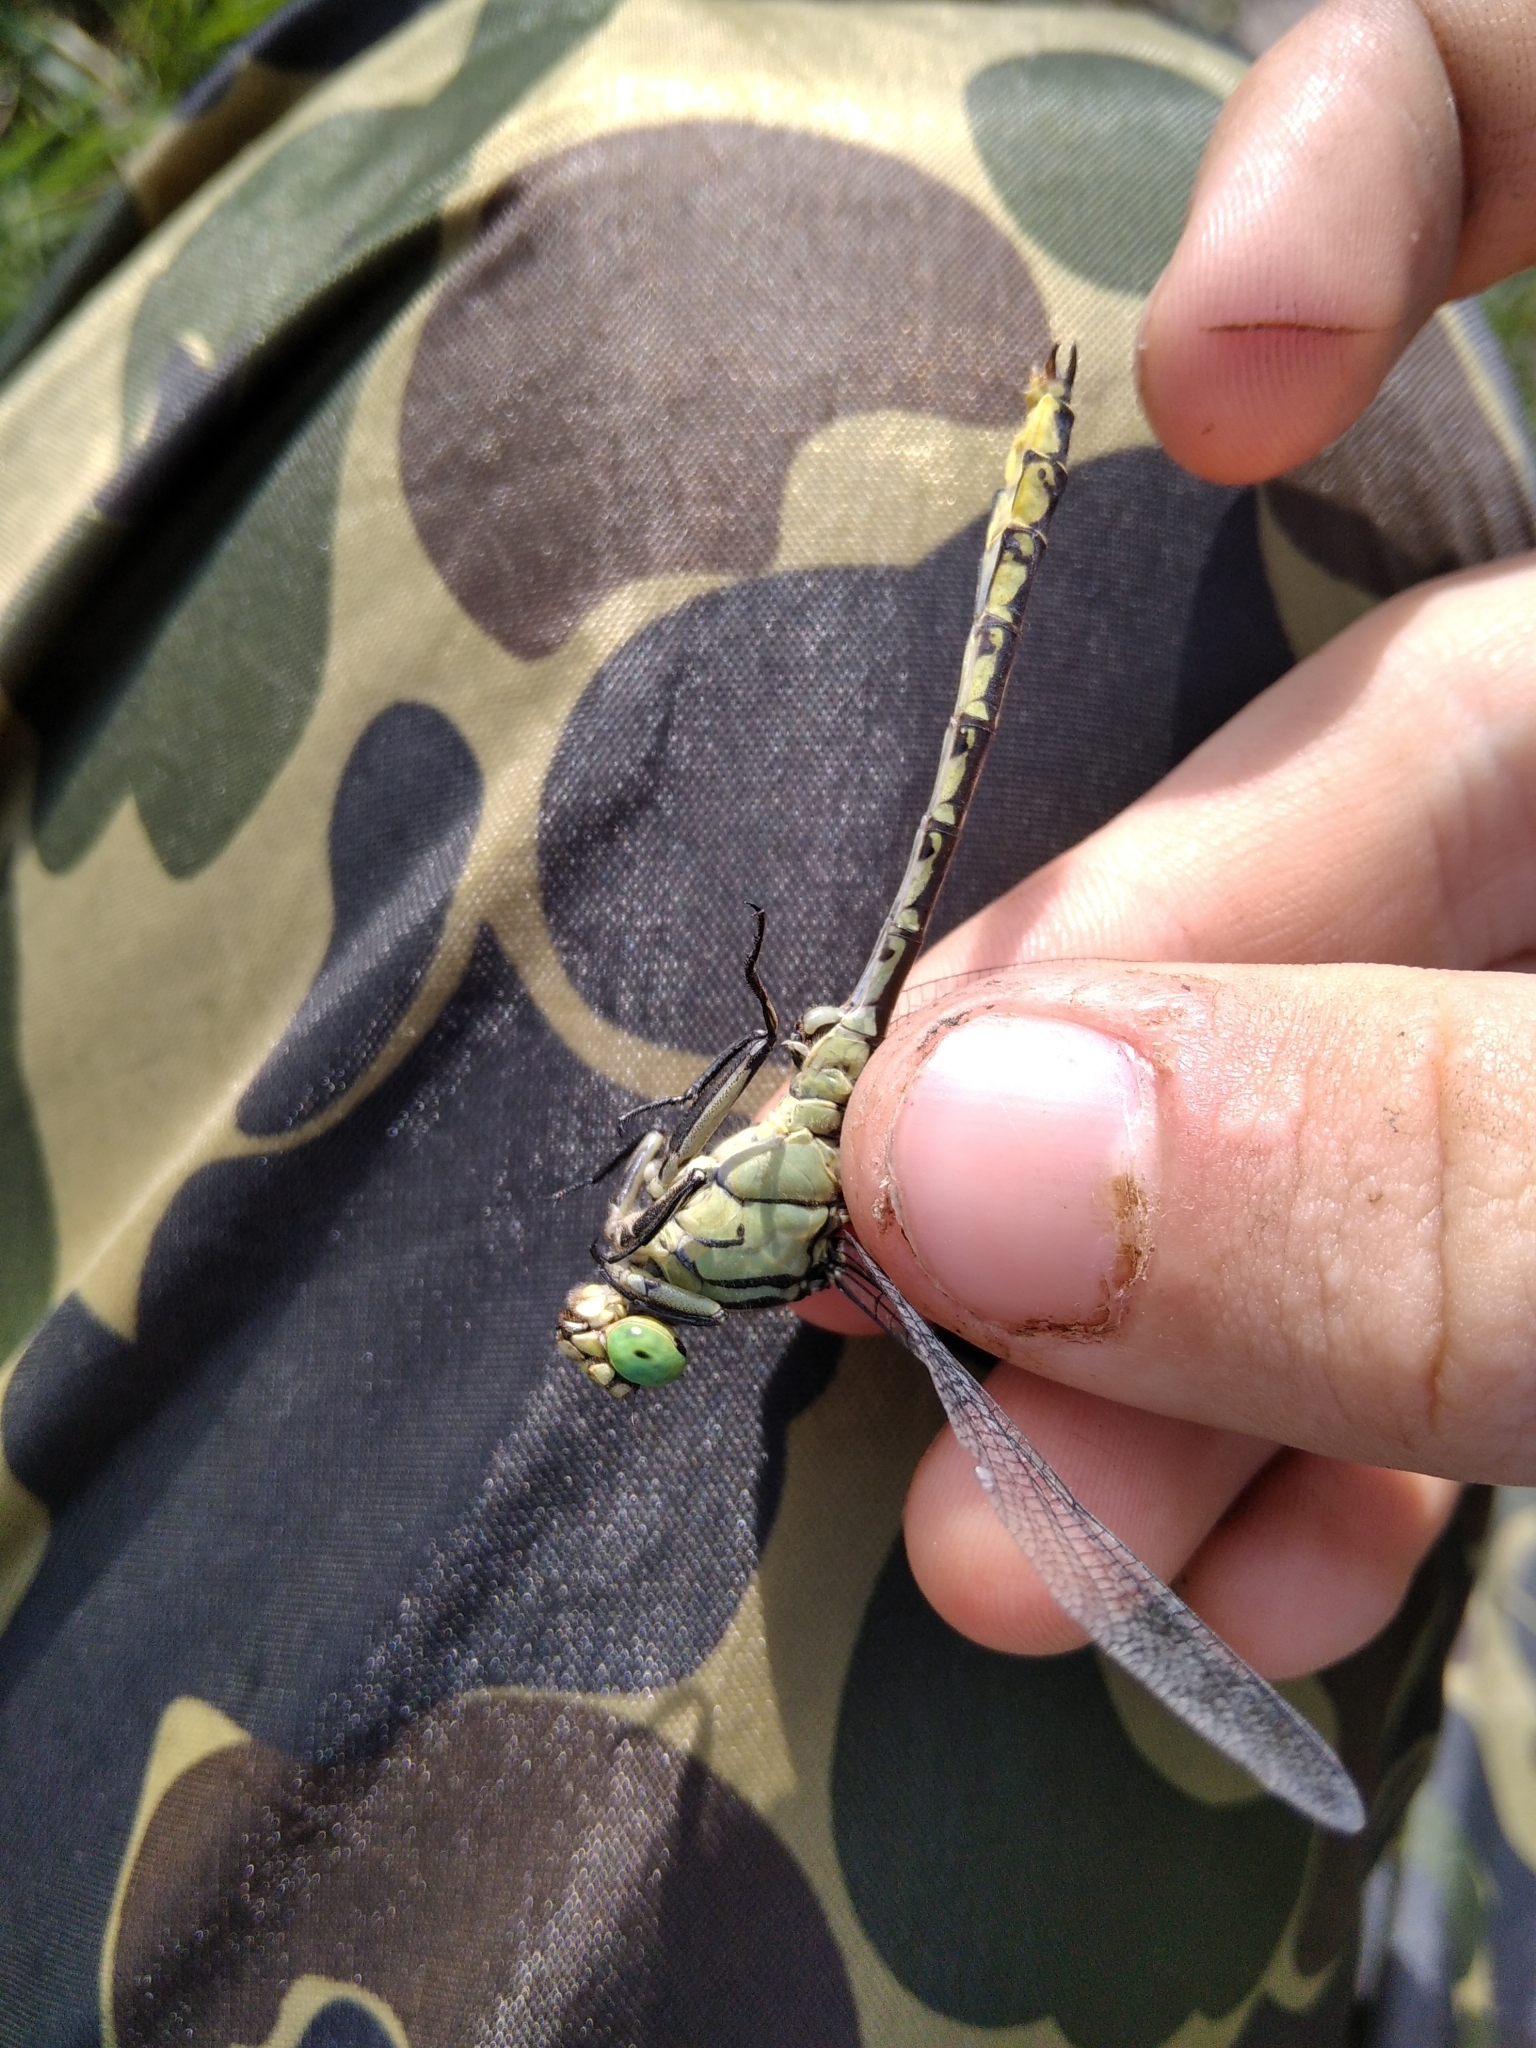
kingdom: Animalia
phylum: Arthropoda
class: Insecta
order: Odonata
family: Gomphidae
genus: Stylurus
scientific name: Stylurus flavipes
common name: River clubtail
